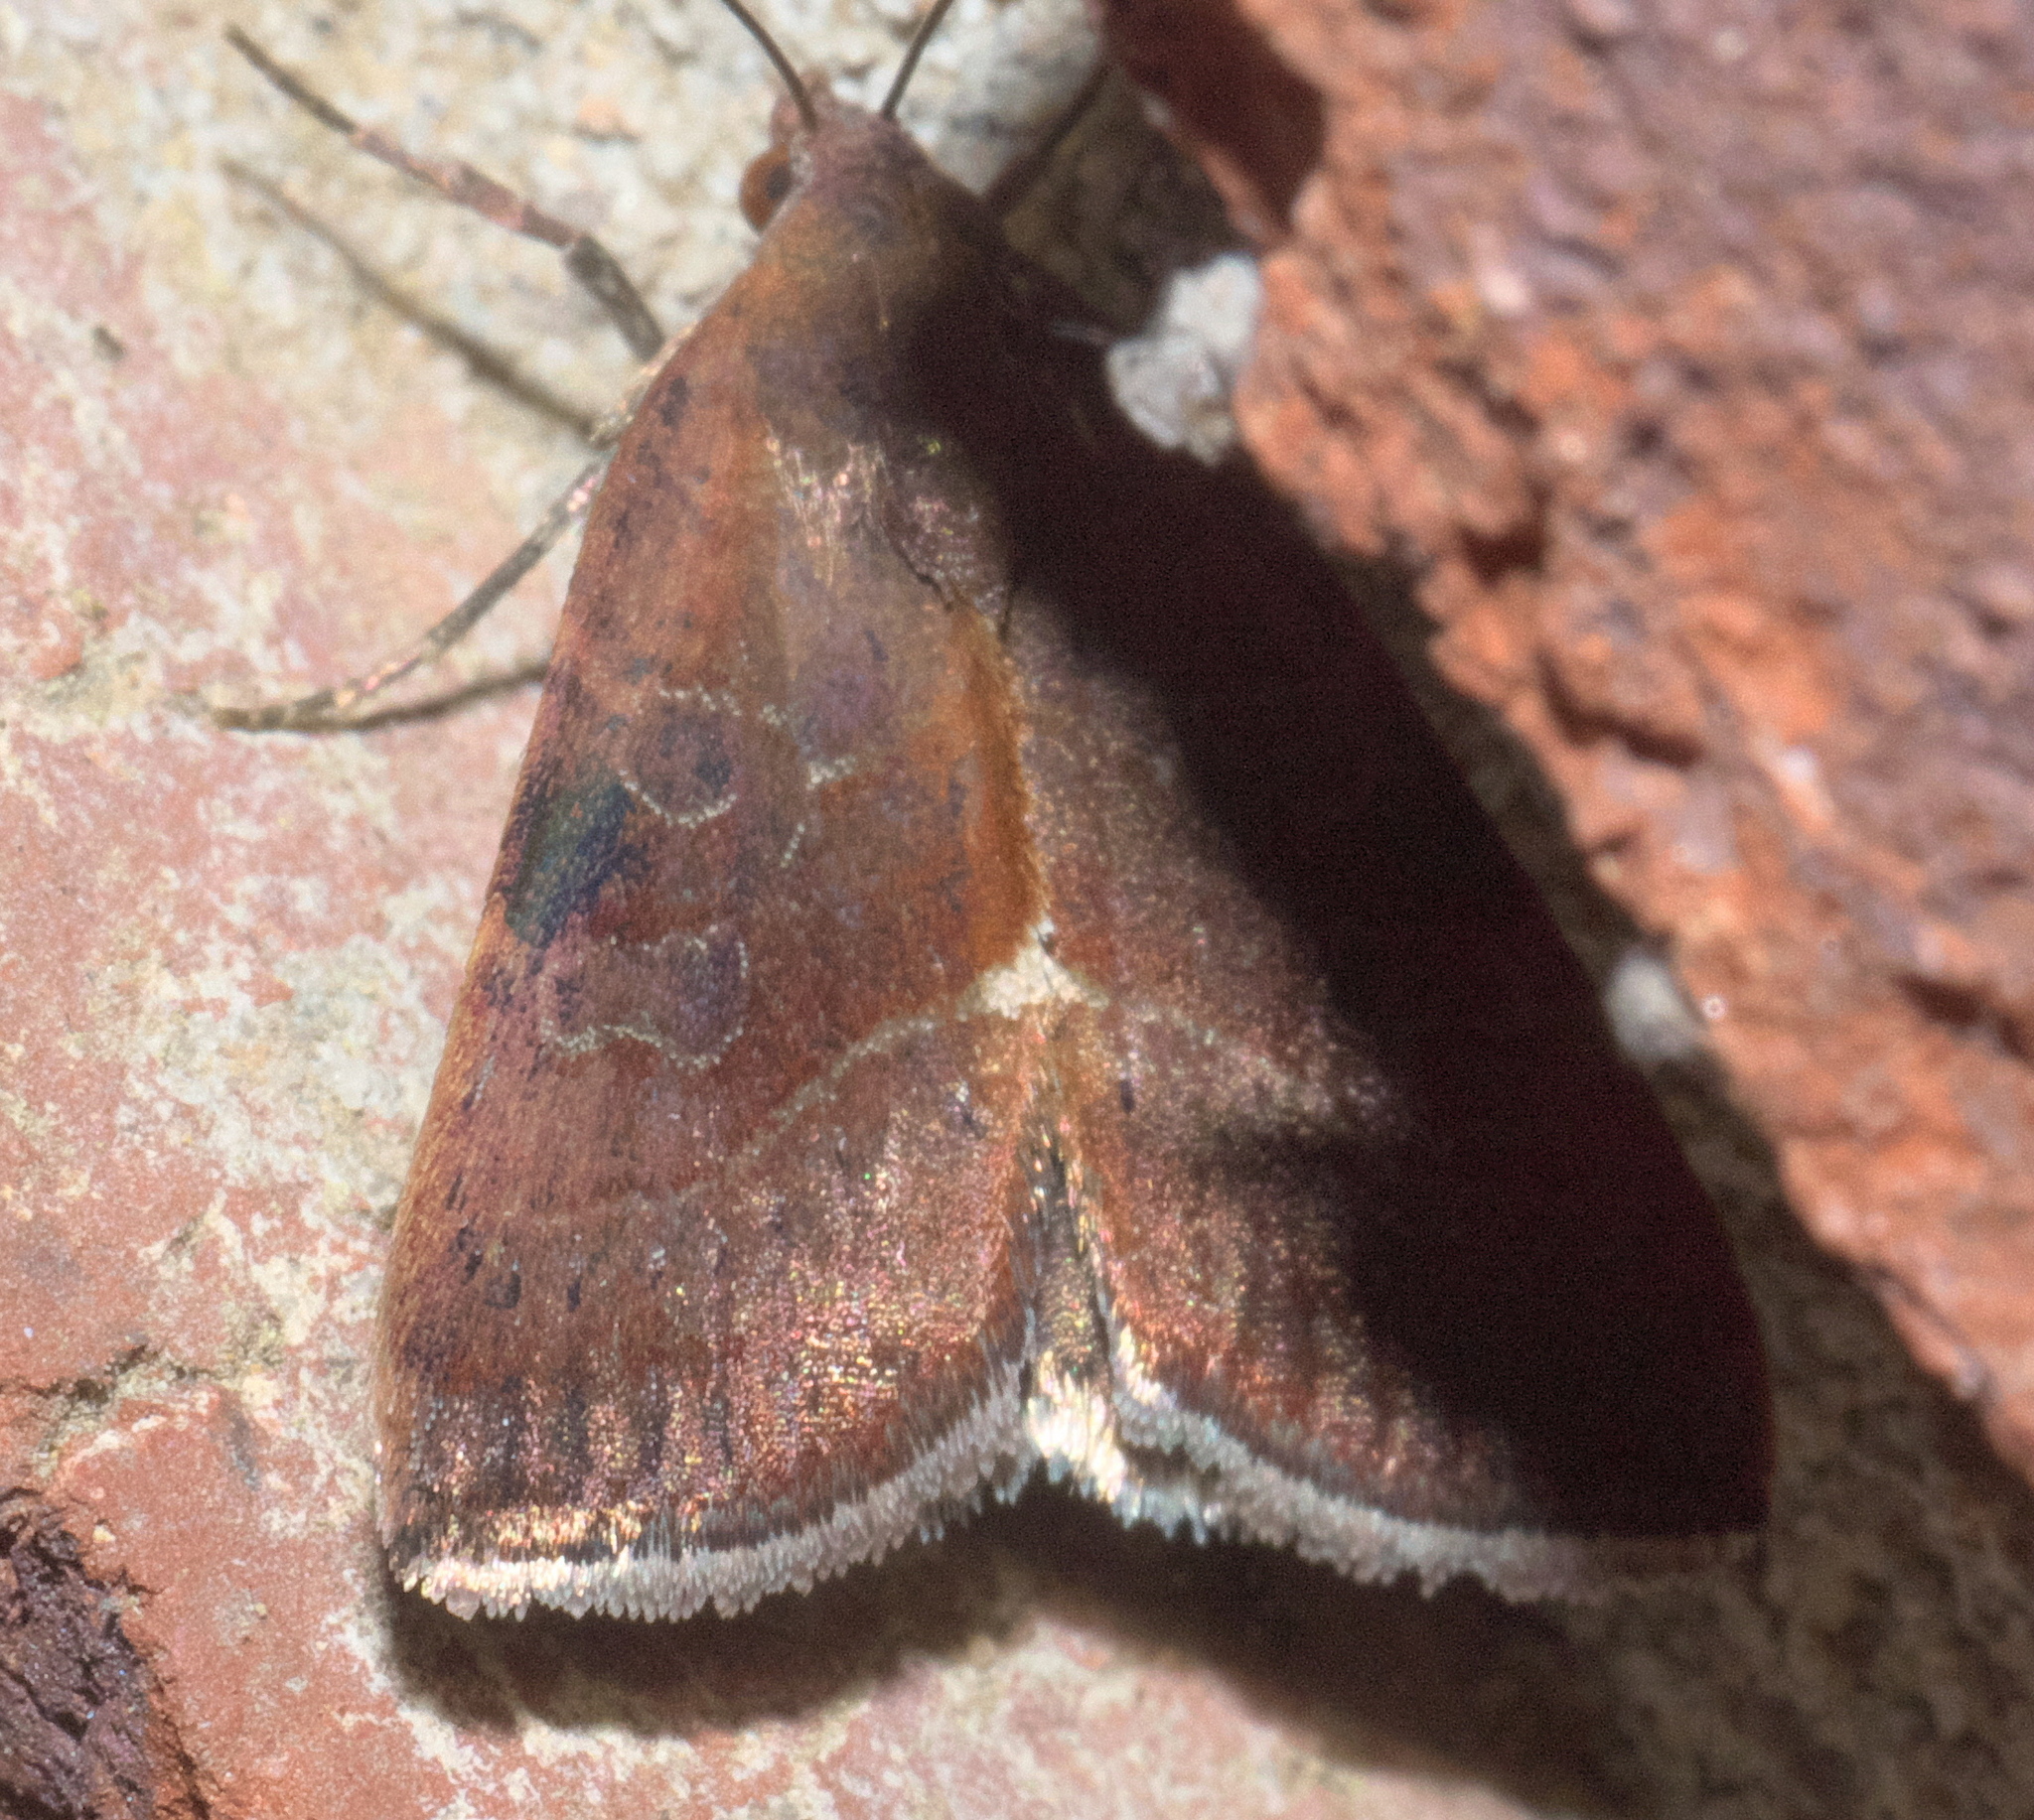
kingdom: Animalia
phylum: Arthropoda
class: Insecta
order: Lepidoptera
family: Noctuidae
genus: Galgula
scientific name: Galgula partita
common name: Wedgeling
